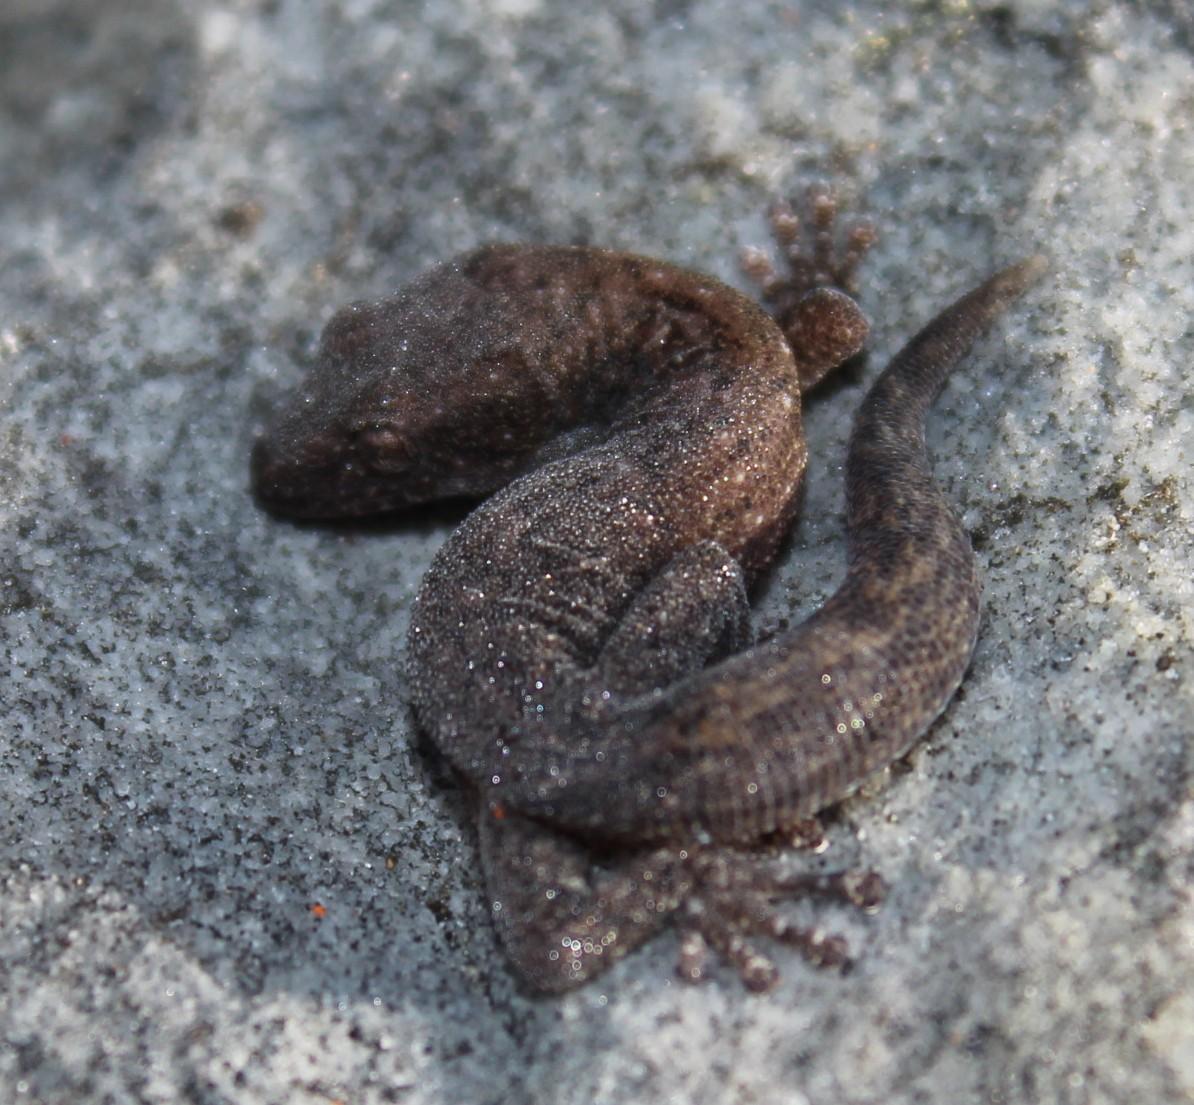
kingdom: Animalia
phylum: Chordata
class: Squamata
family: Gekkonidae
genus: Afrogecko
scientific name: Afrogecko porphyreus
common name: Marbled leaf-toed gecko
